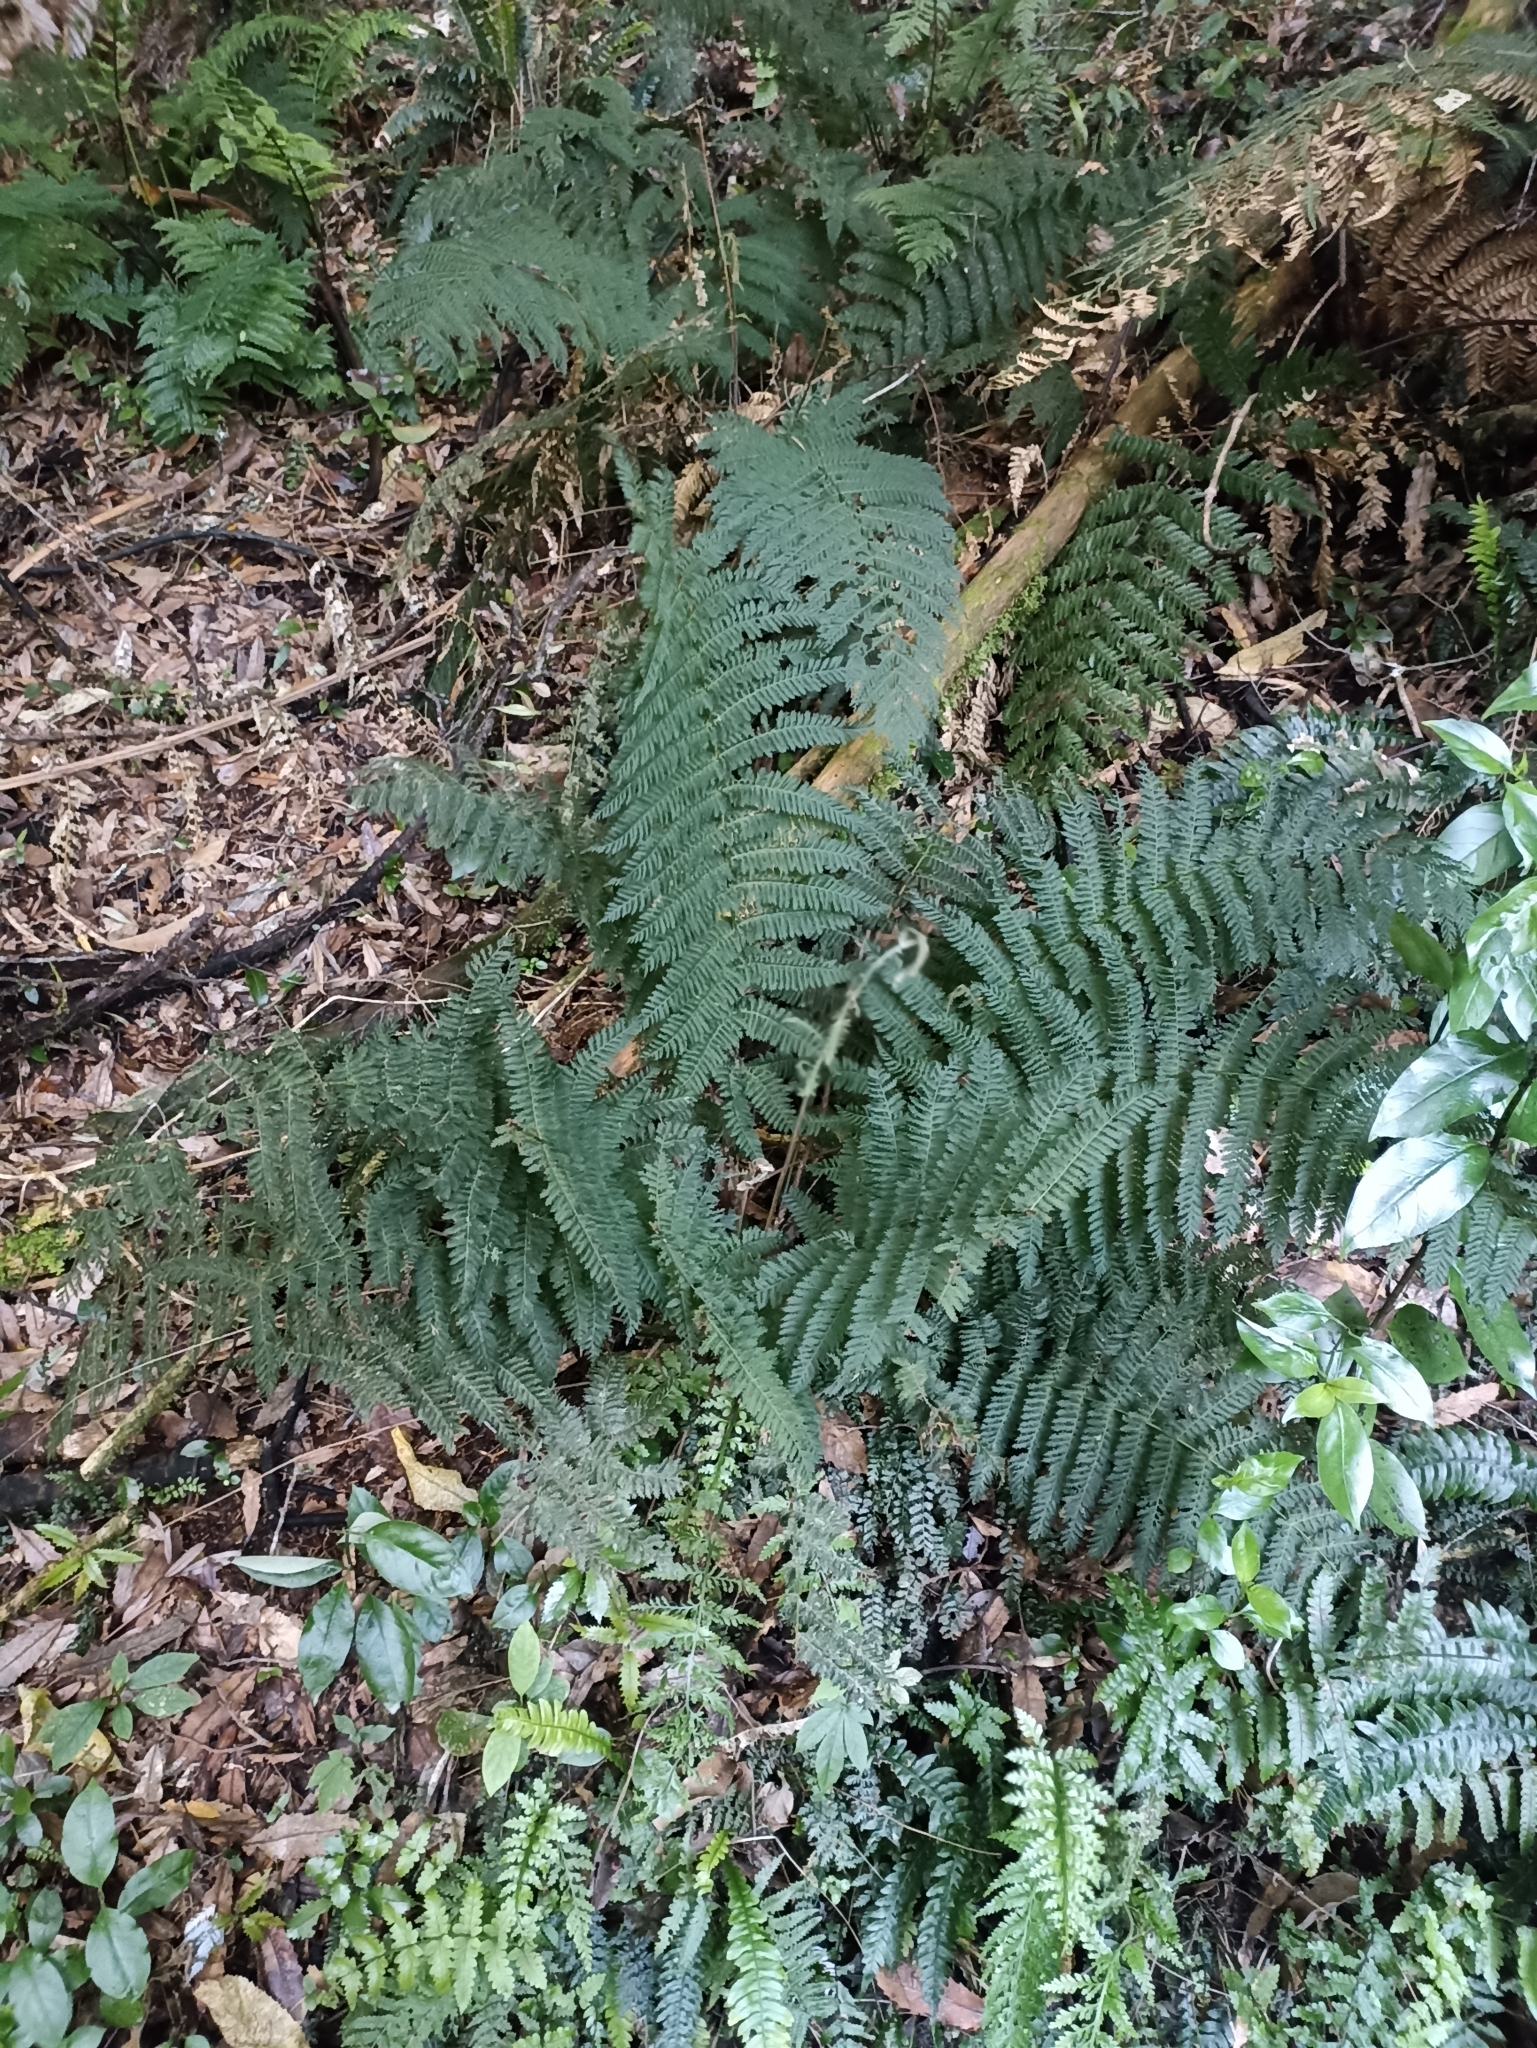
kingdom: Plantae
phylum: Tracheophyta
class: Polypodiopsida
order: Osmundales
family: Osmundaceae
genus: Leptopteris
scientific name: Leptopteris hymenophylloides
